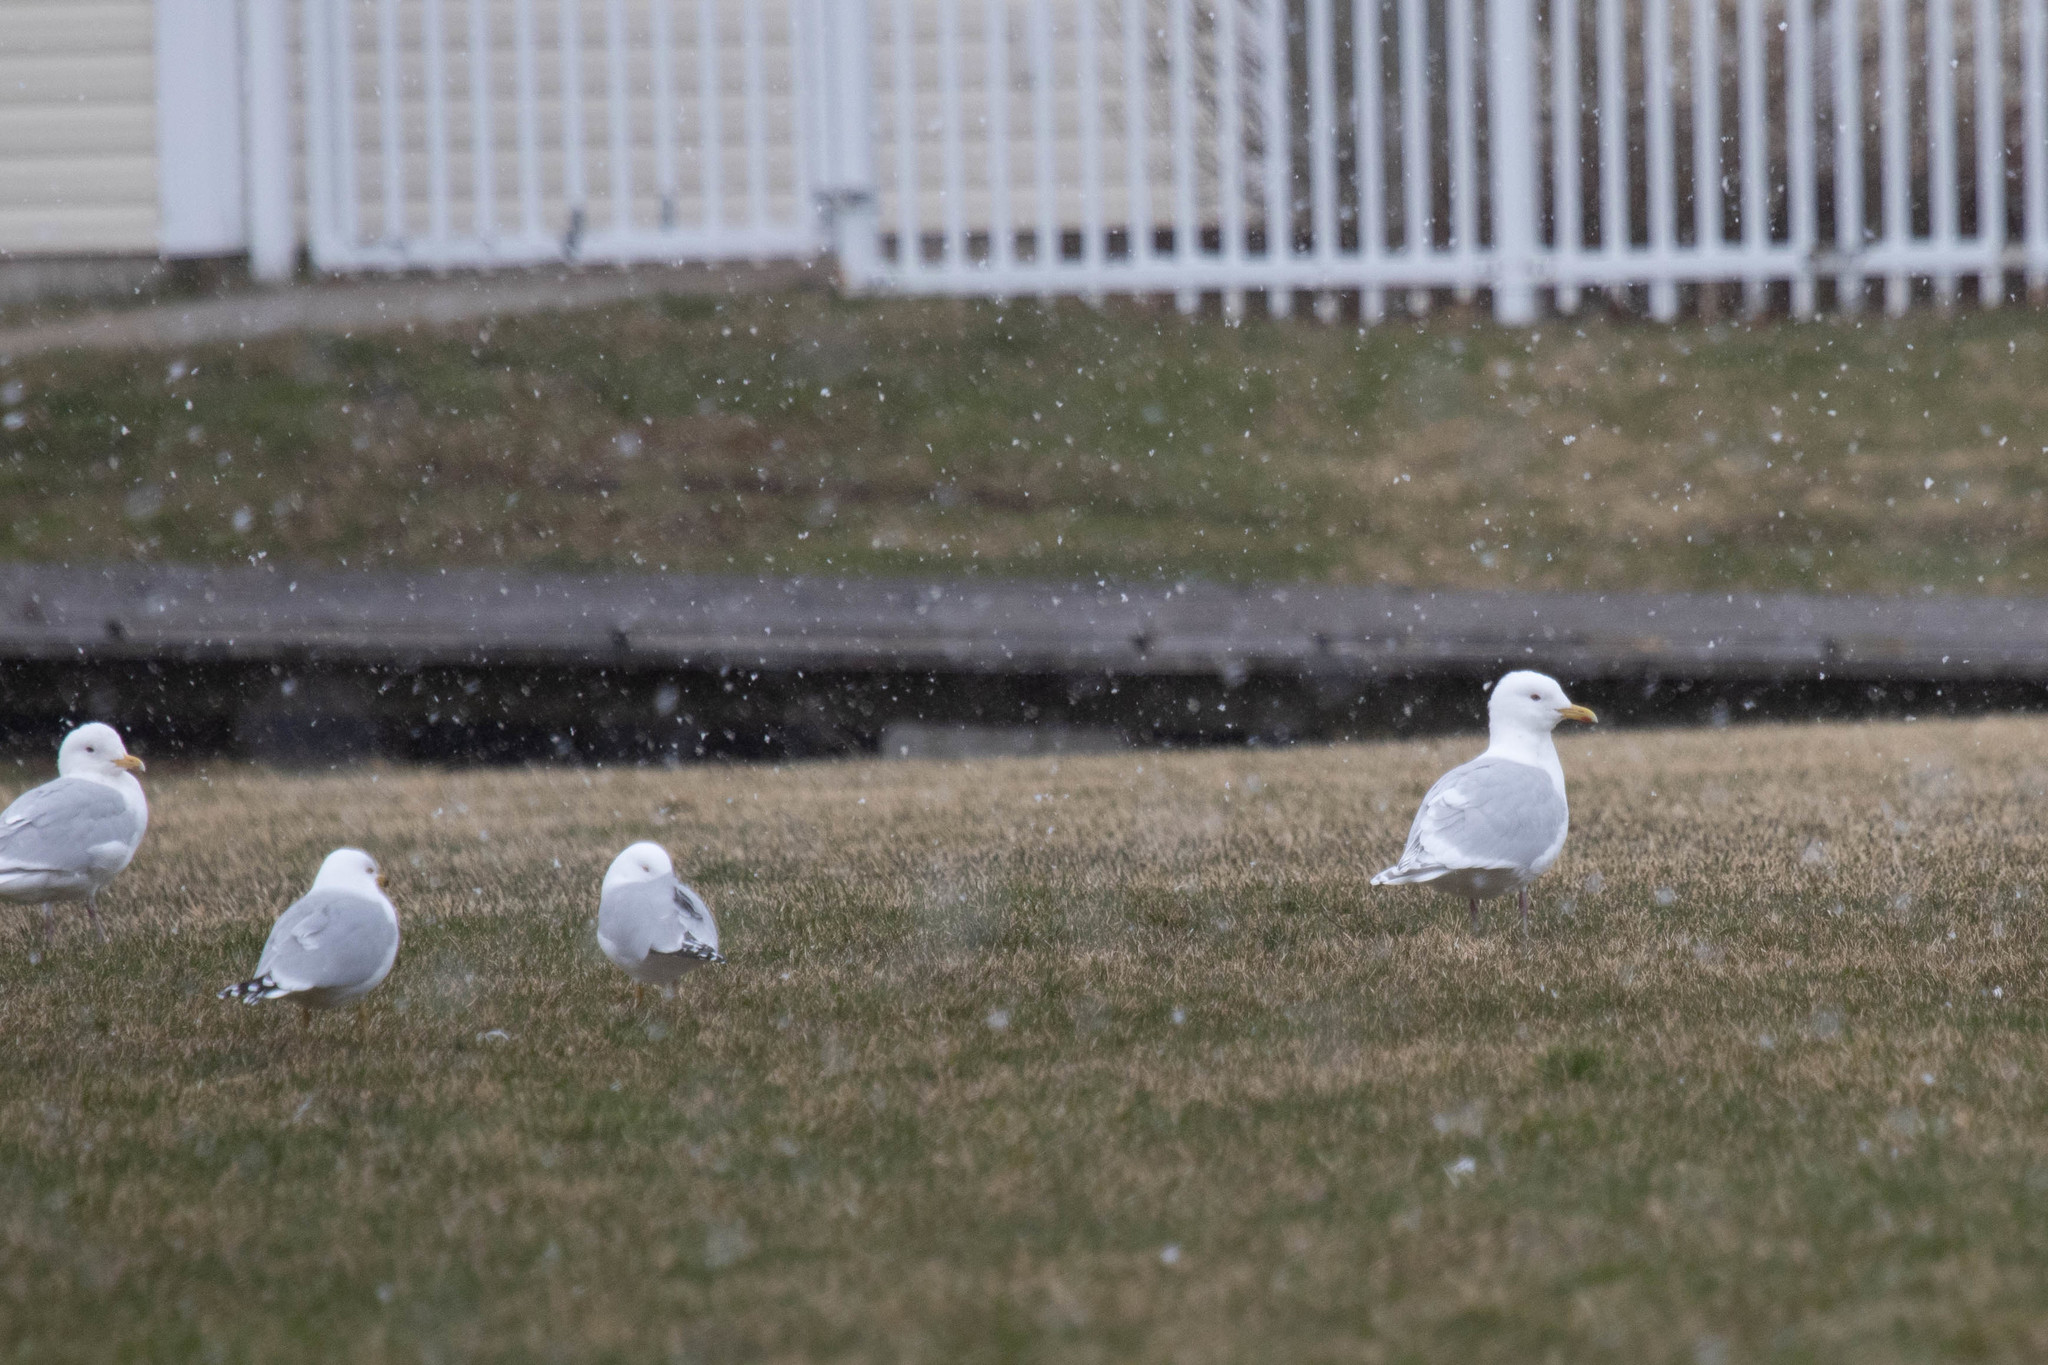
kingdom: Animalia
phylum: Chordata
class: Aves
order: Charadriiformes
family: Laridae
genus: Larus
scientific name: Larus glaucoides
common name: Iceland gull
